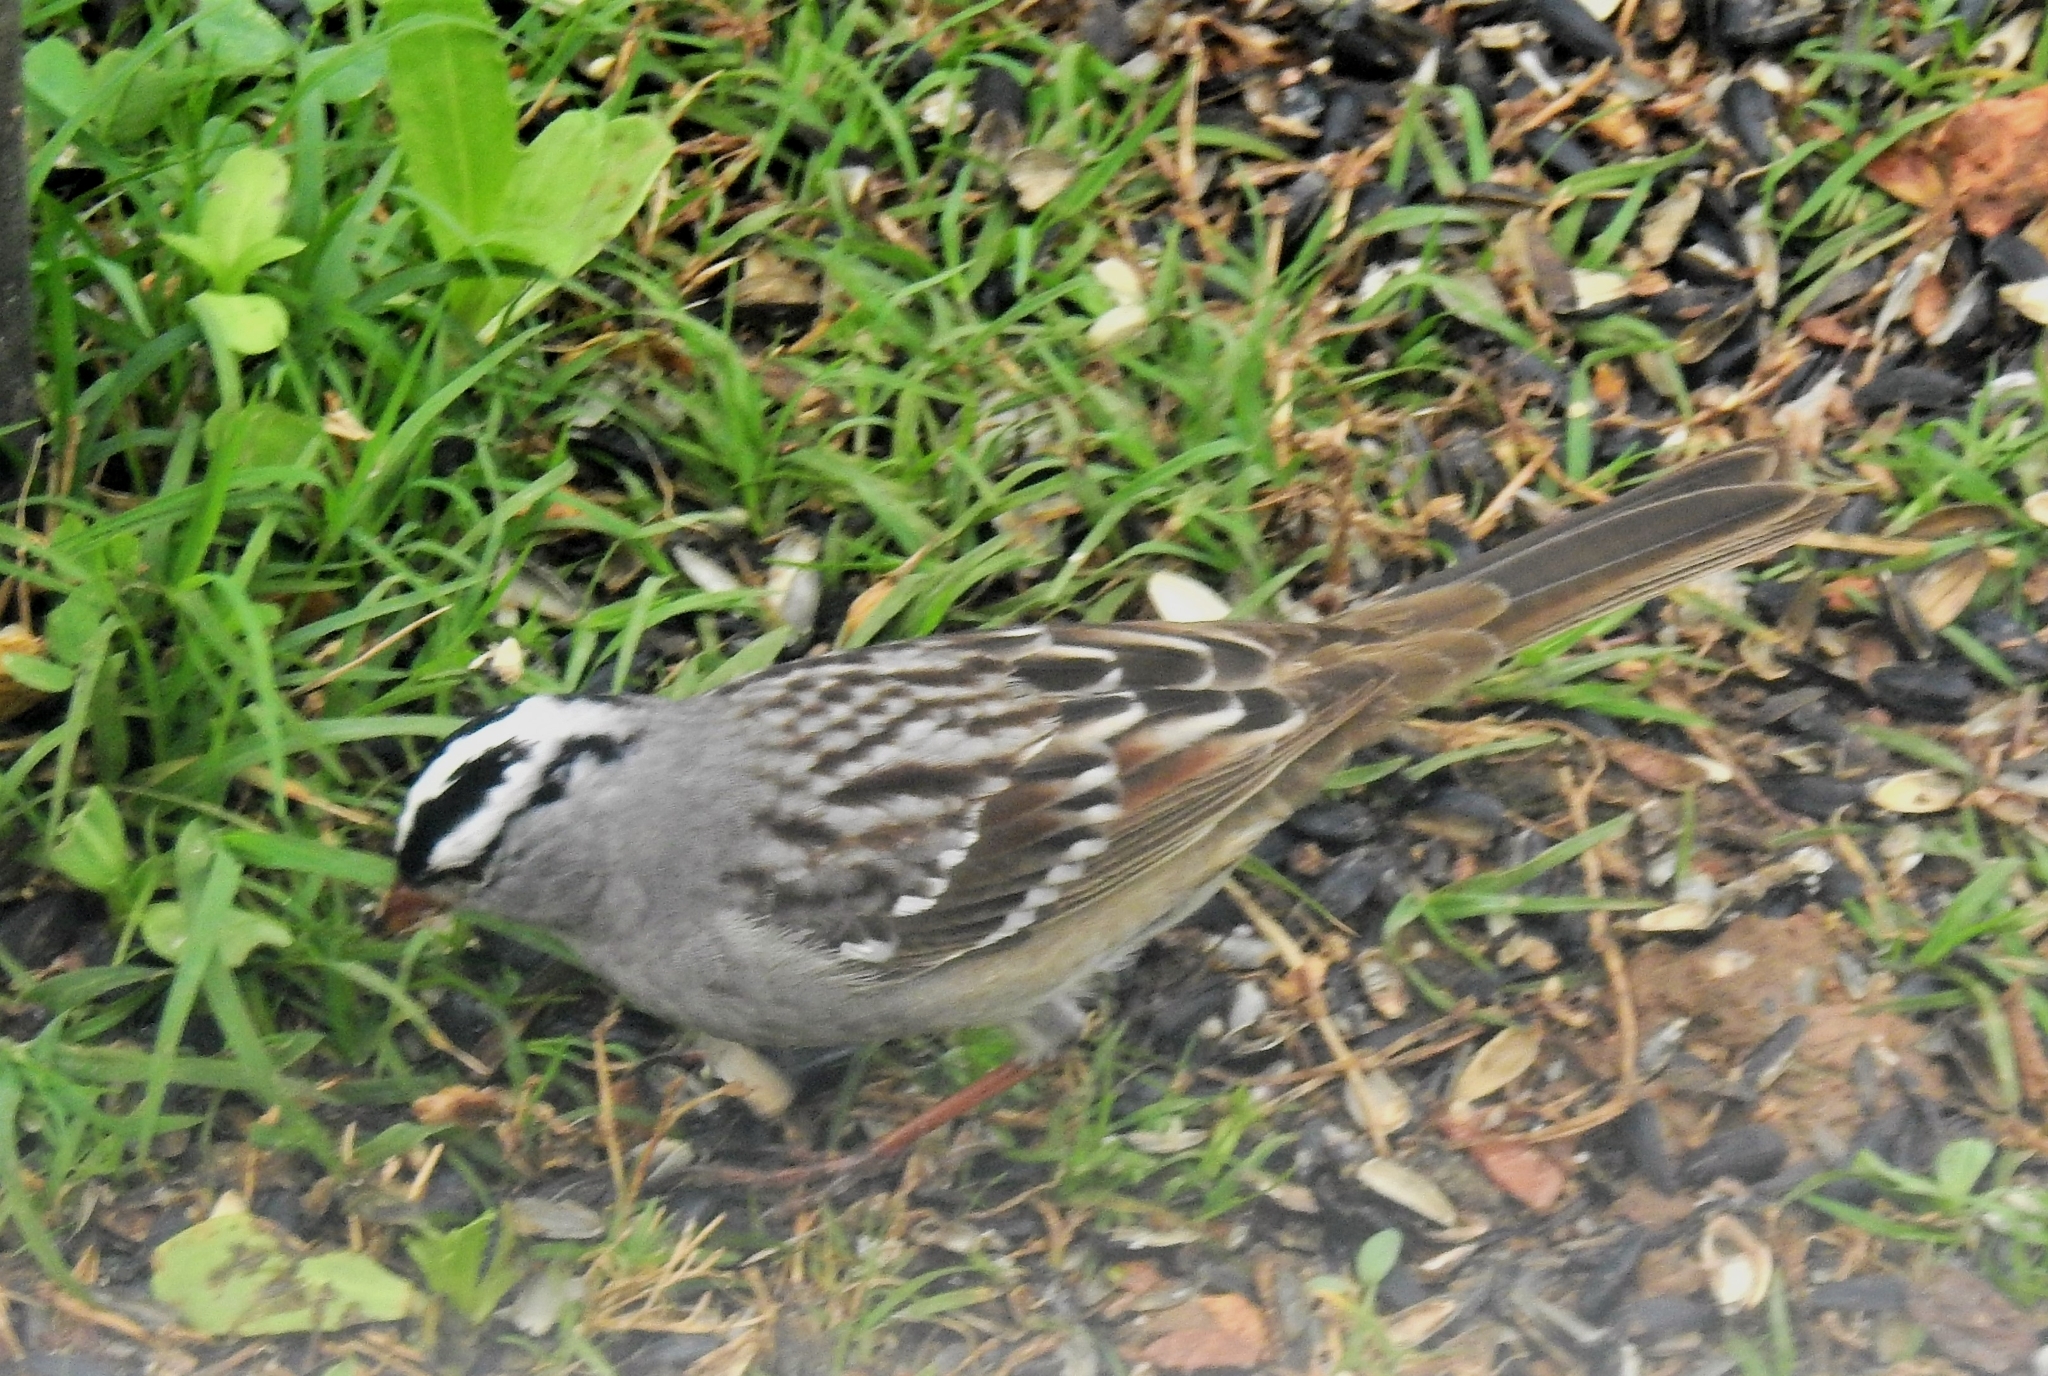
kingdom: Animalia
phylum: Chordata
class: Aves
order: Passeriformes
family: Passerellidae
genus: Zonotrichia
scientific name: Zonotrichia leucophrys
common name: White-crowned sparrow
